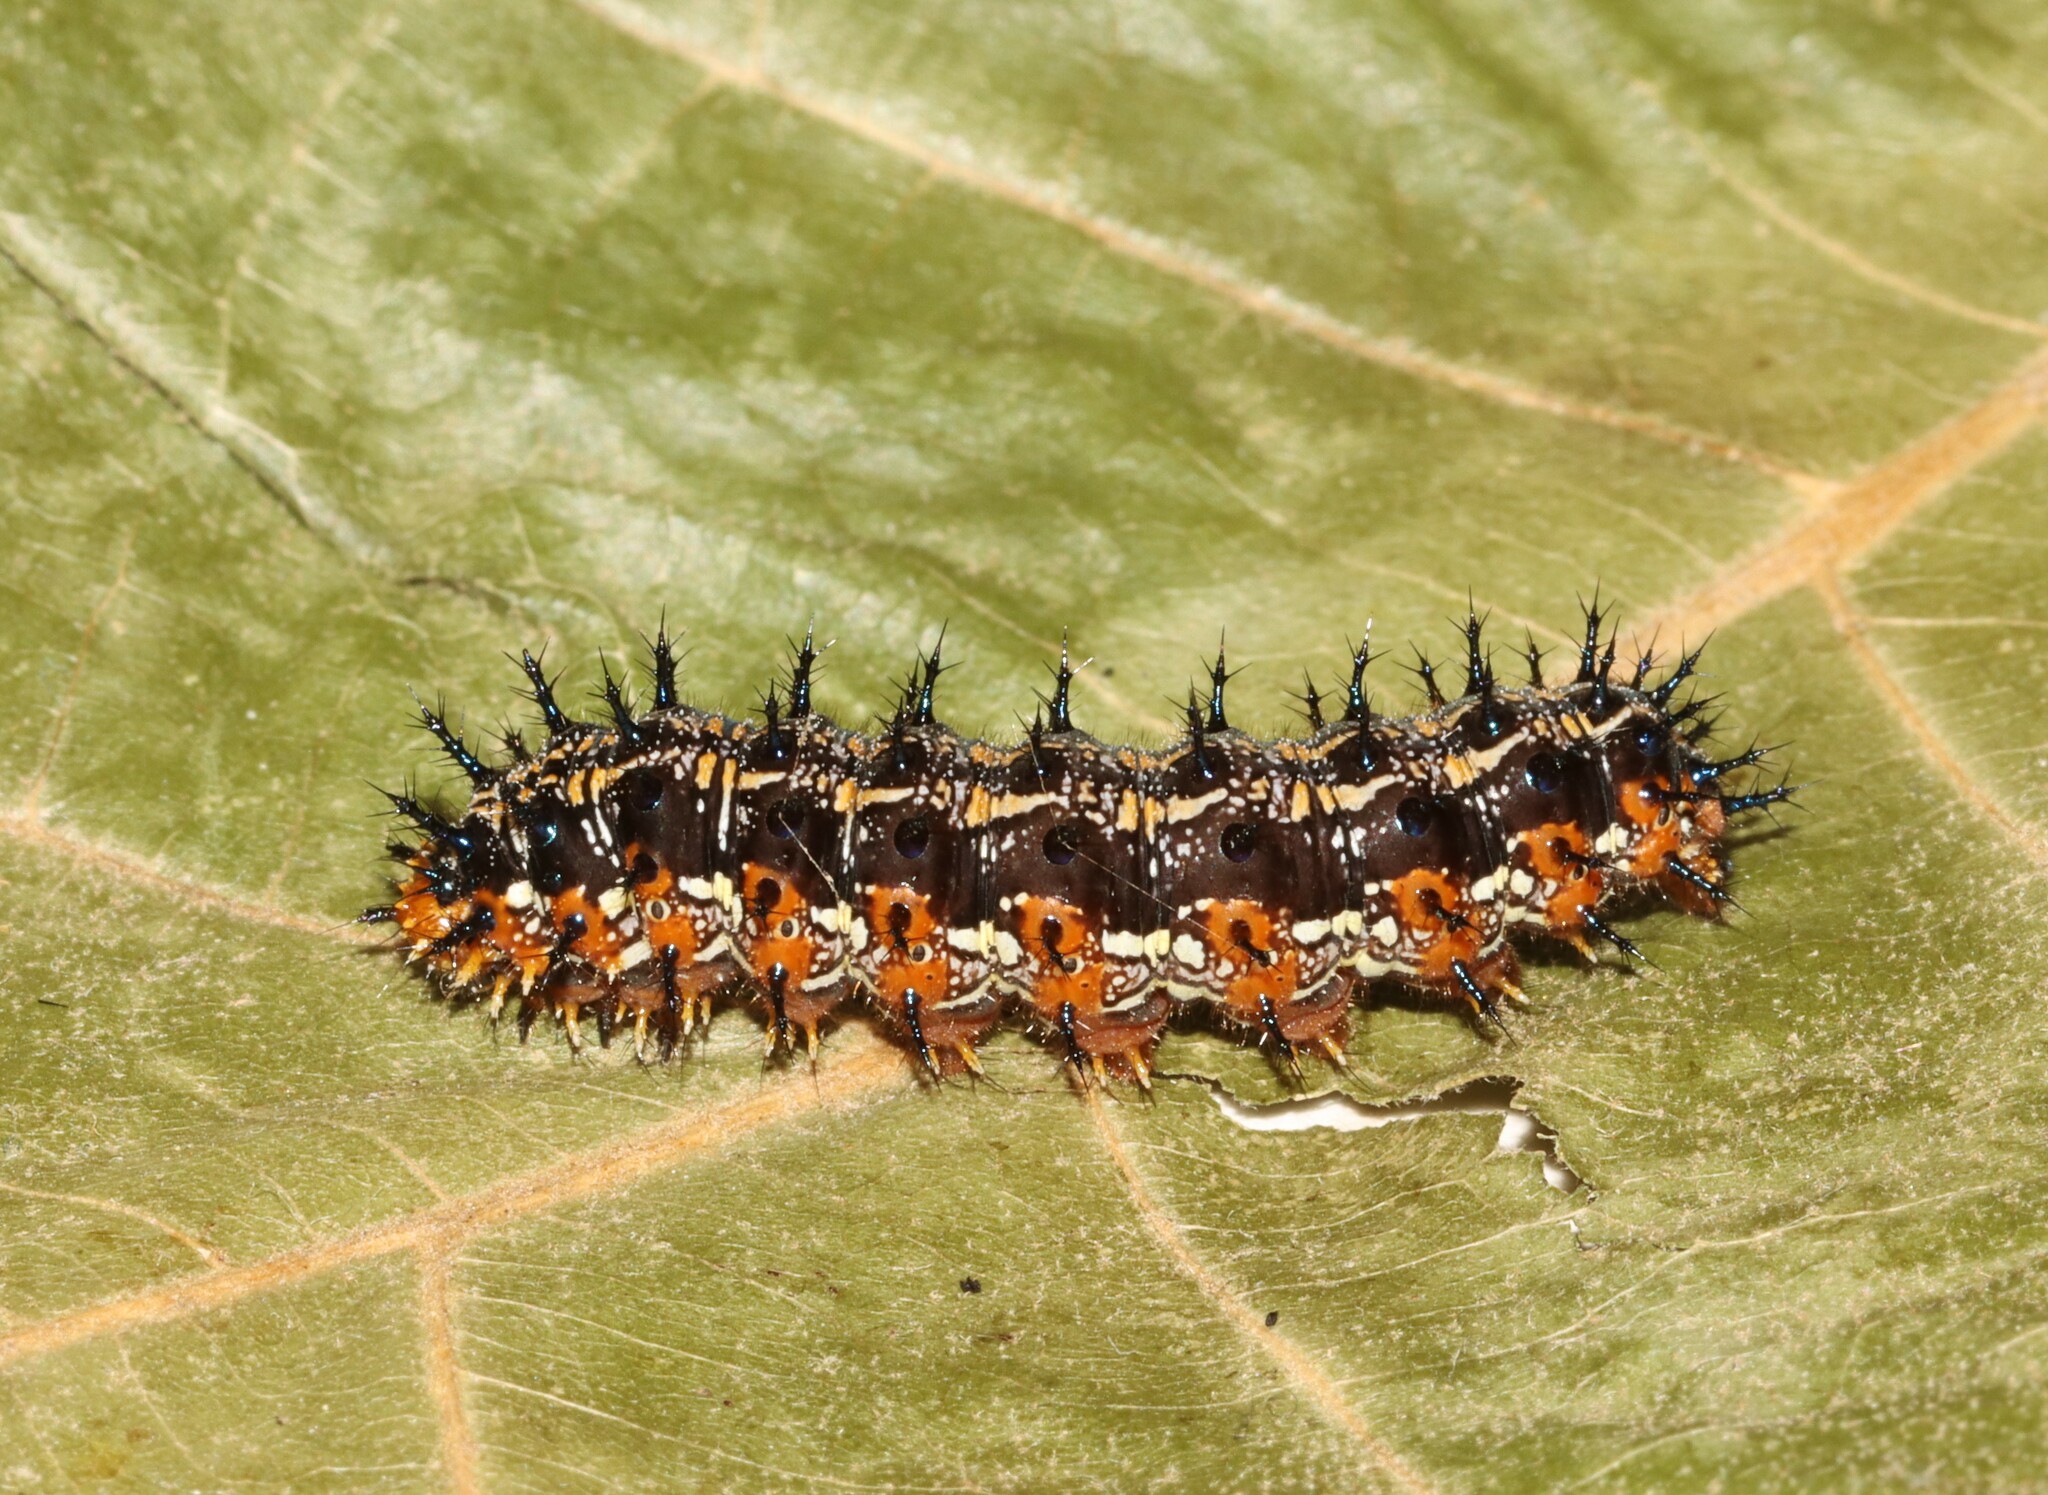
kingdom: Animalia
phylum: Arthropoda
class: Insecta
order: Lepidoptera
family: Nymphalidae
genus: Junonia
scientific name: Junonia coenia
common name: Common buckeye
